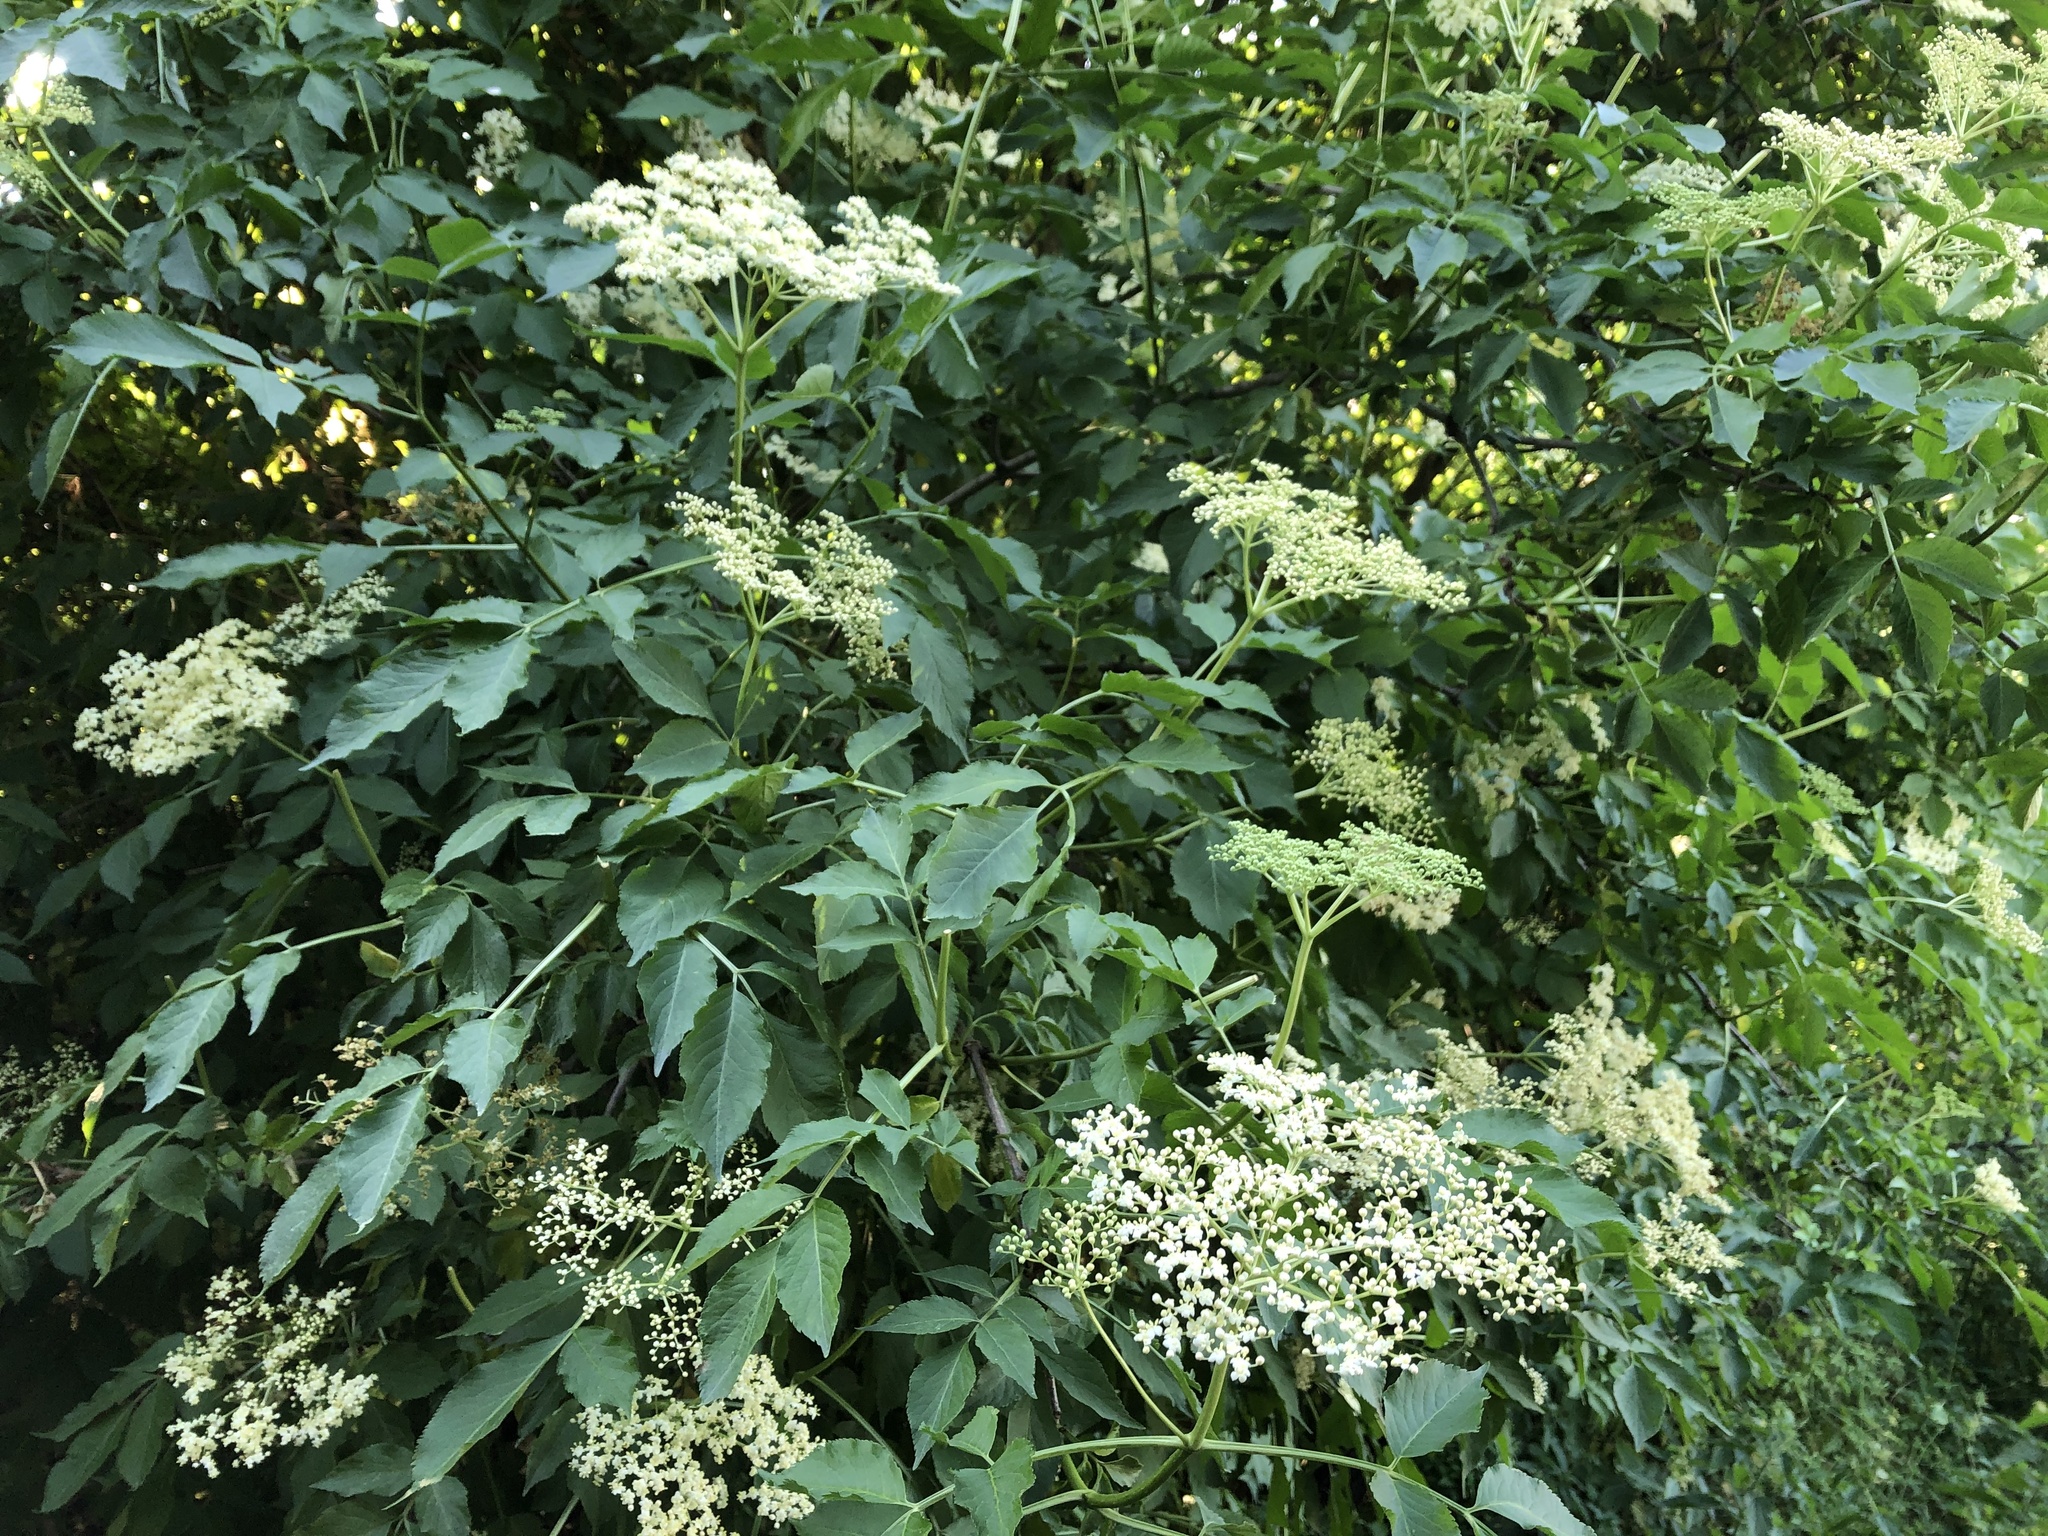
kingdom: Plantae
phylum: Tracheophyta
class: Magnoliopsida
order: Dipsacales
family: Viburnaceae
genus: Sambucus
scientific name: Sambucus nigra
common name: Elder
